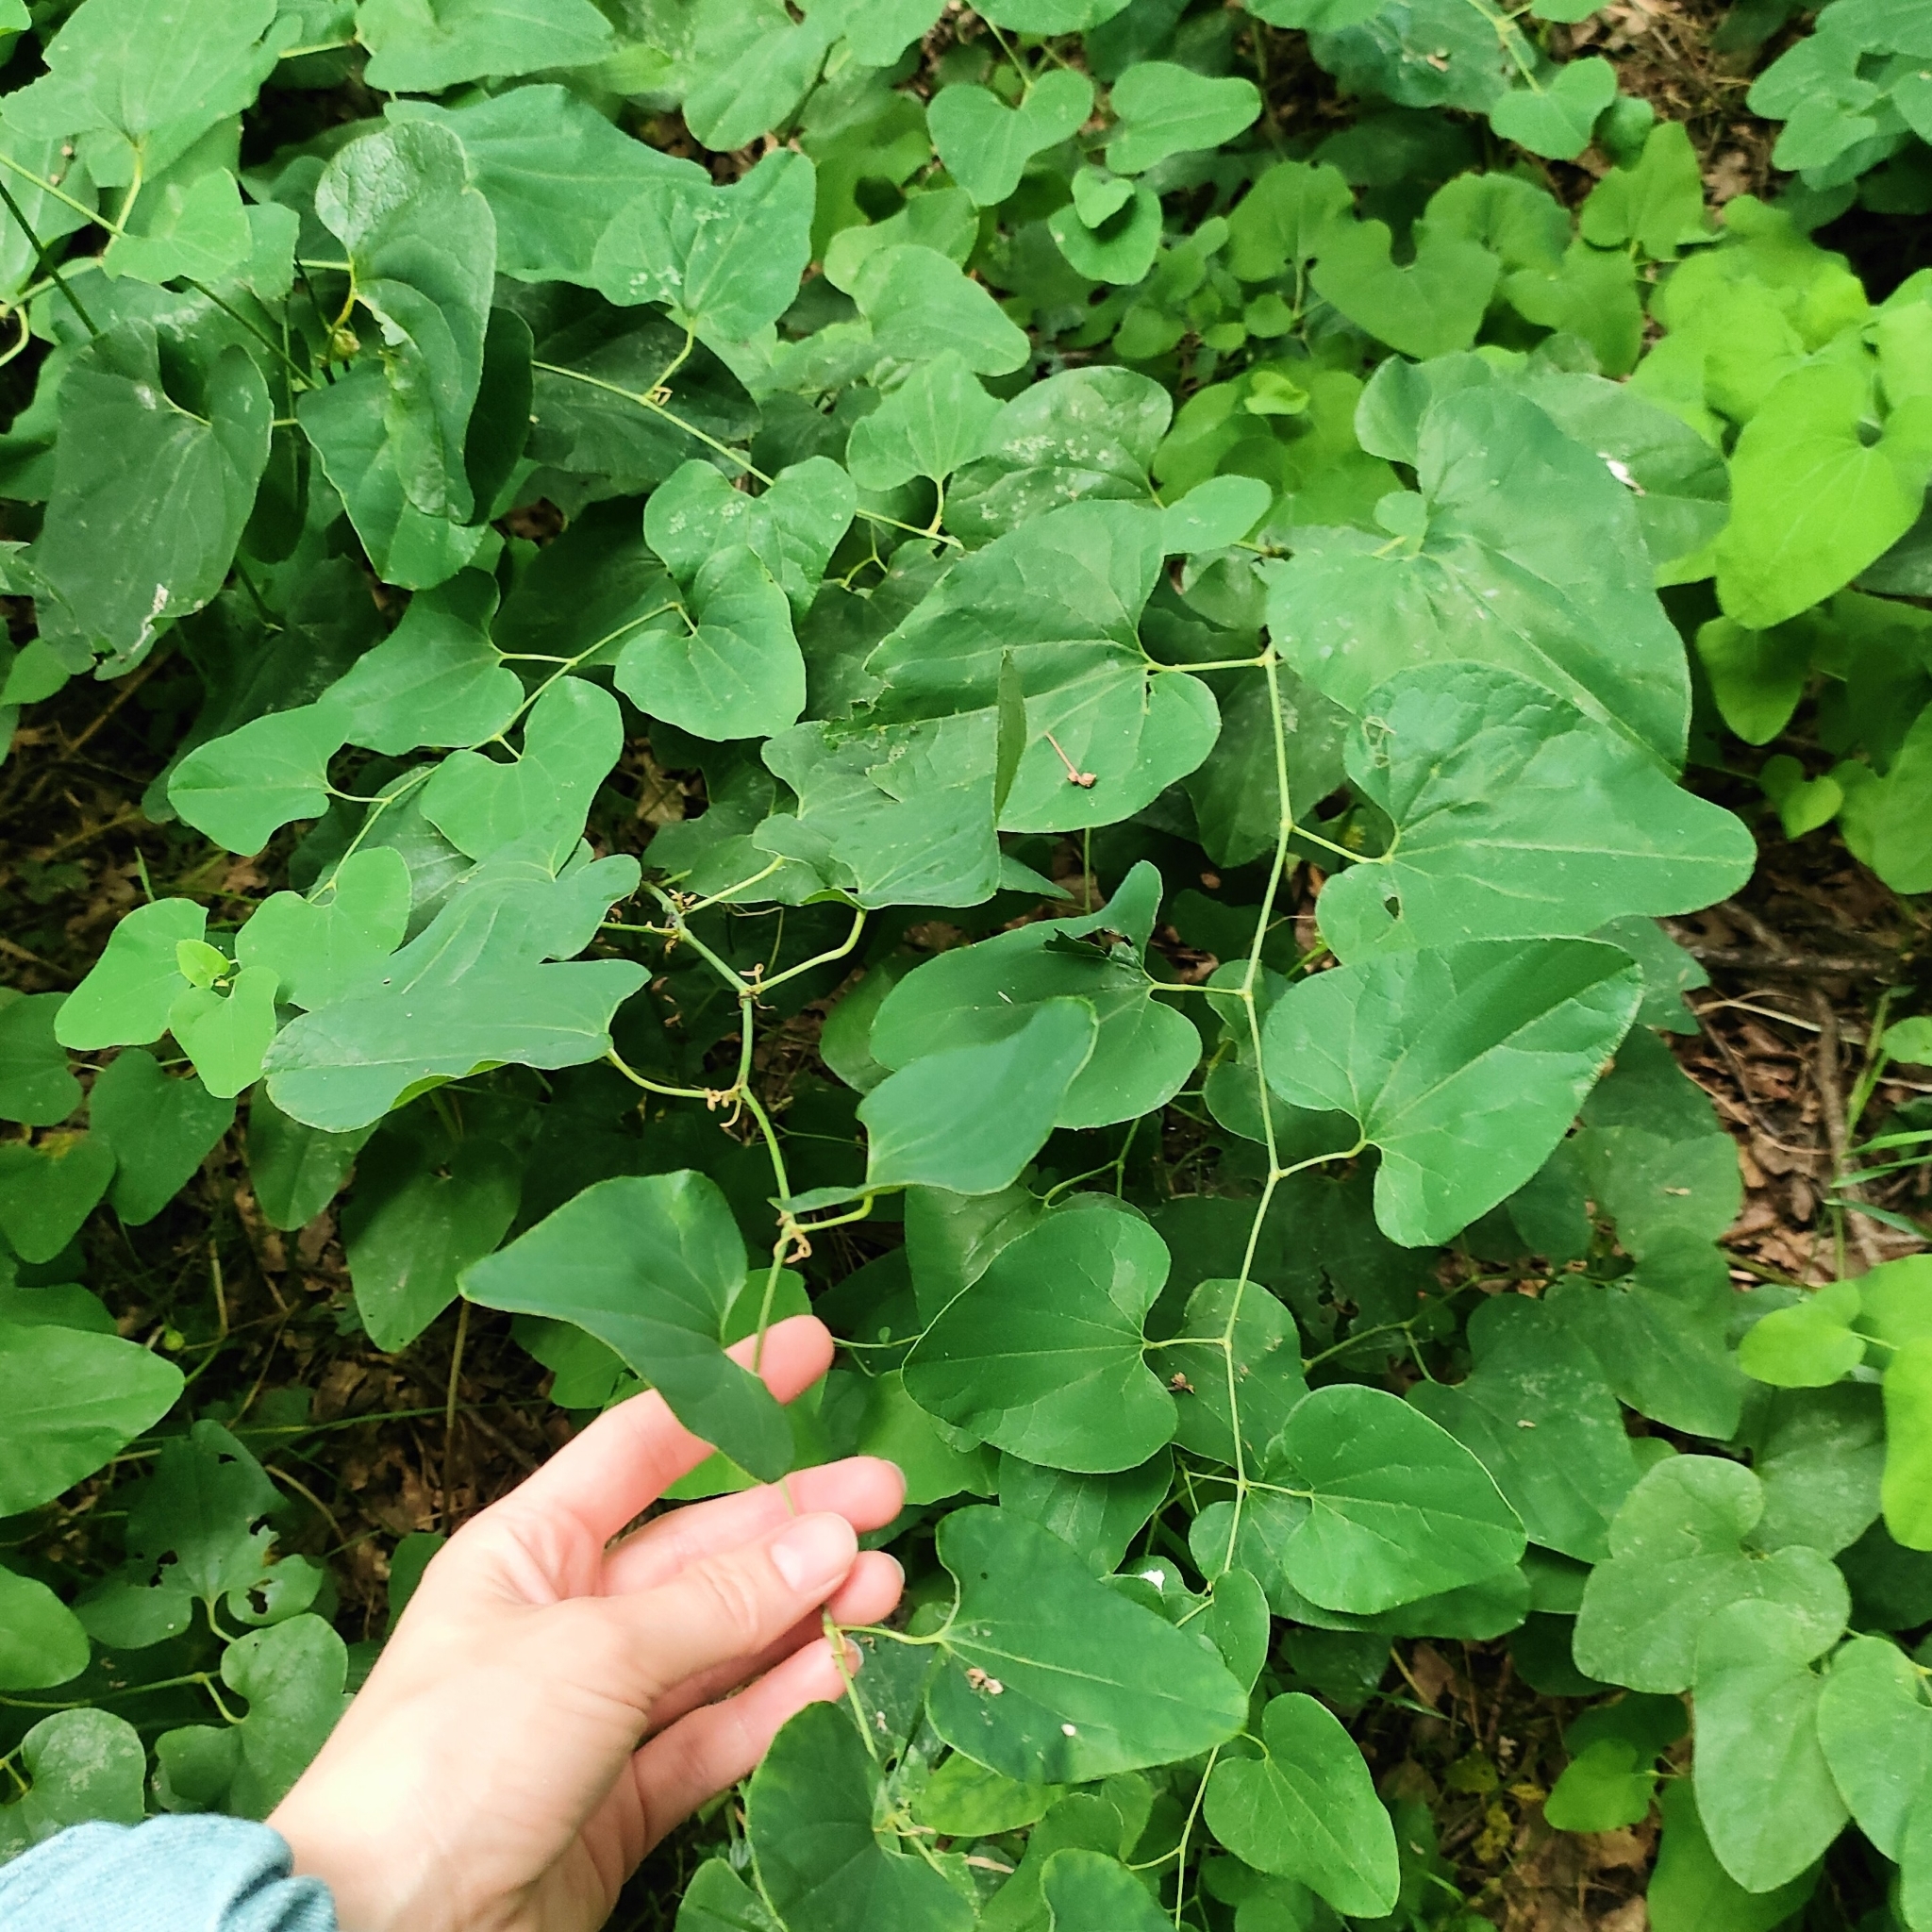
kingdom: Plantae
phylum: Tracheophyta
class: Magnoliopsida
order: Piperales
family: Aristolochiaceae
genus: Aristolochia
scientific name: Aristolochia clematitis
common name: Birthwort
